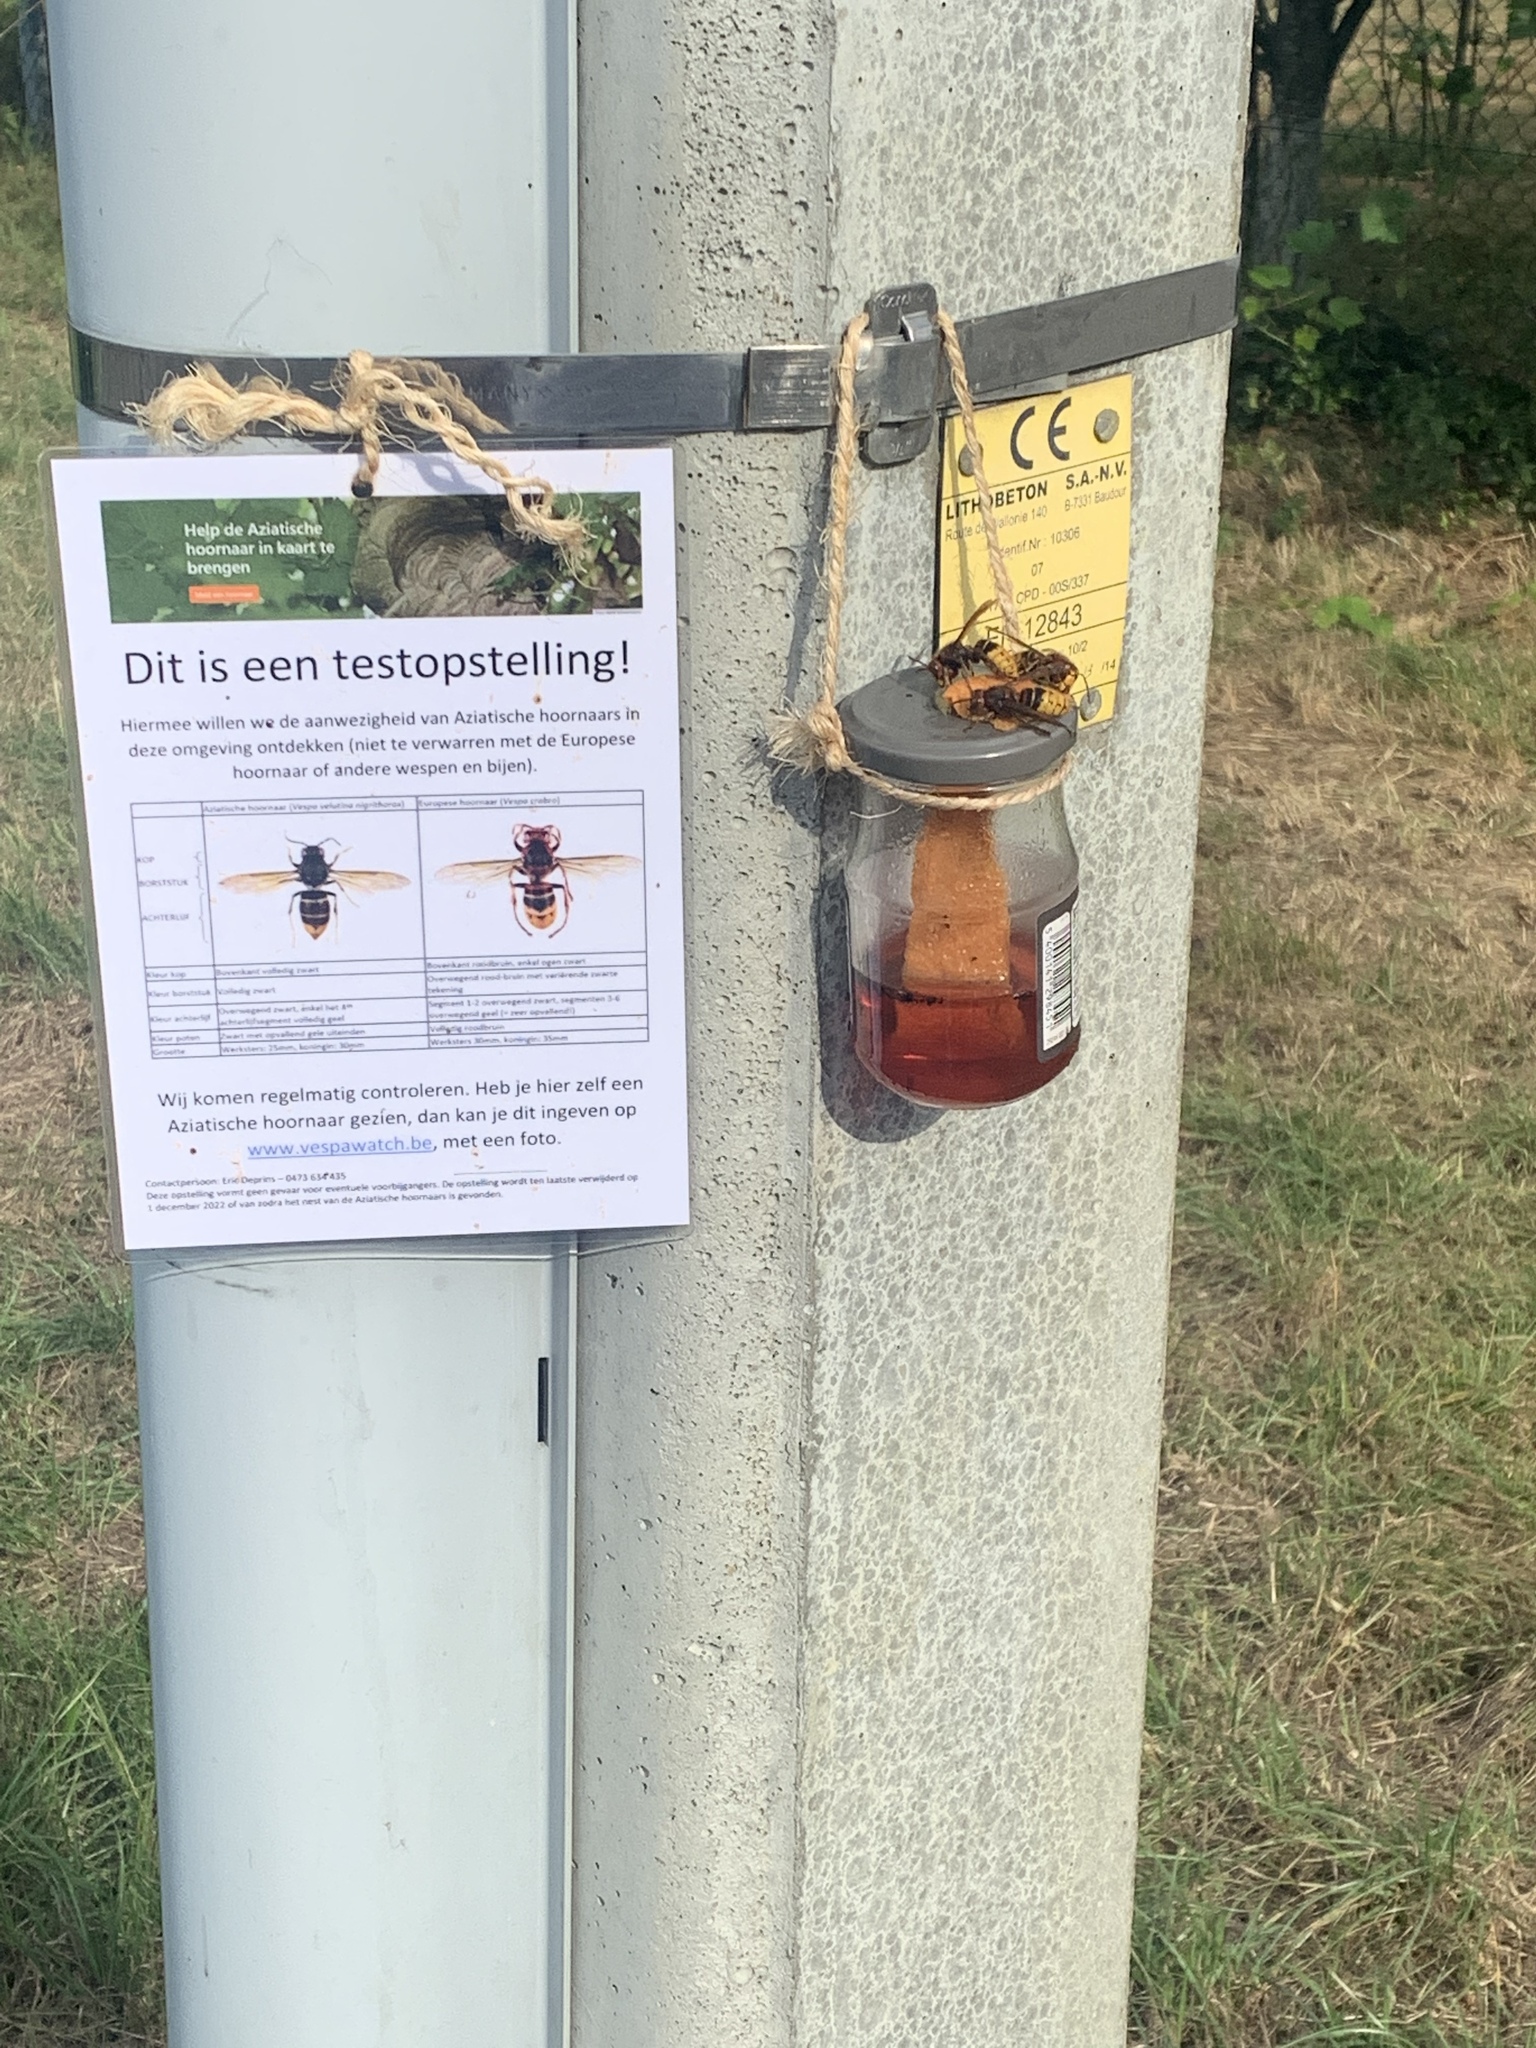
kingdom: Animalia
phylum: Arthropoda
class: Insecta
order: Hymenoptera
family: Vespidae
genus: Vespa
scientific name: Vespa crabro
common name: Hornet
